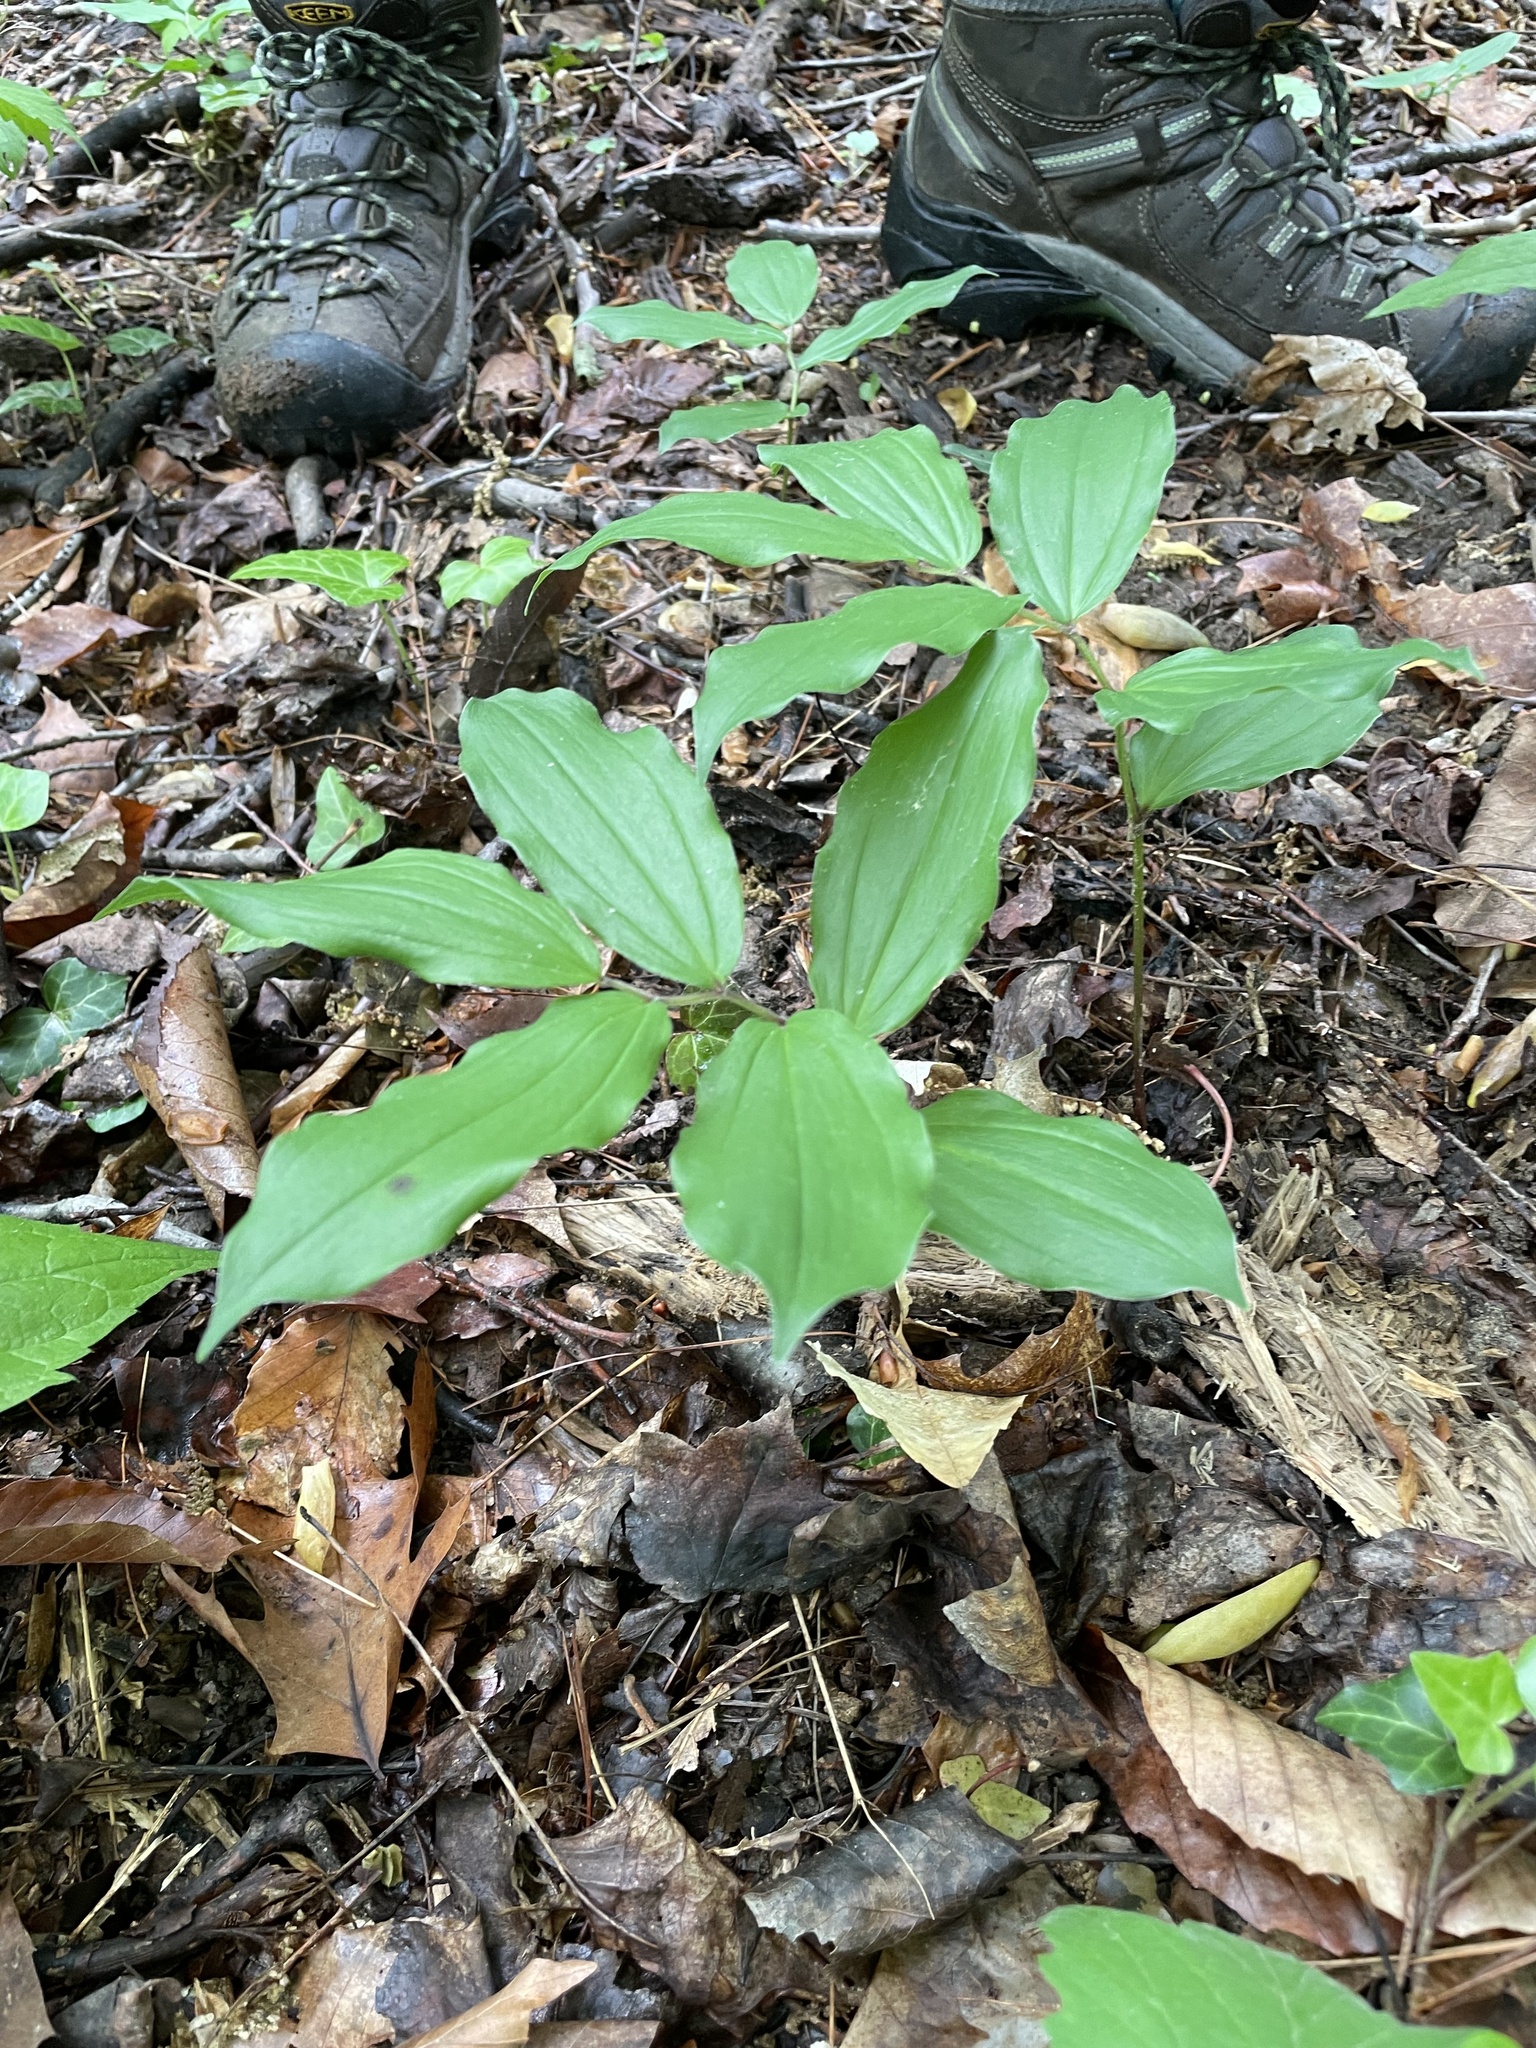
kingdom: Plantae
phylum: Tracheophyta
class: Liliopsida
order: Asparagales
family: Asparagaceae
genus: Maianthemum
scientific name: Maianthemum racemosum
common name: False spikenard
